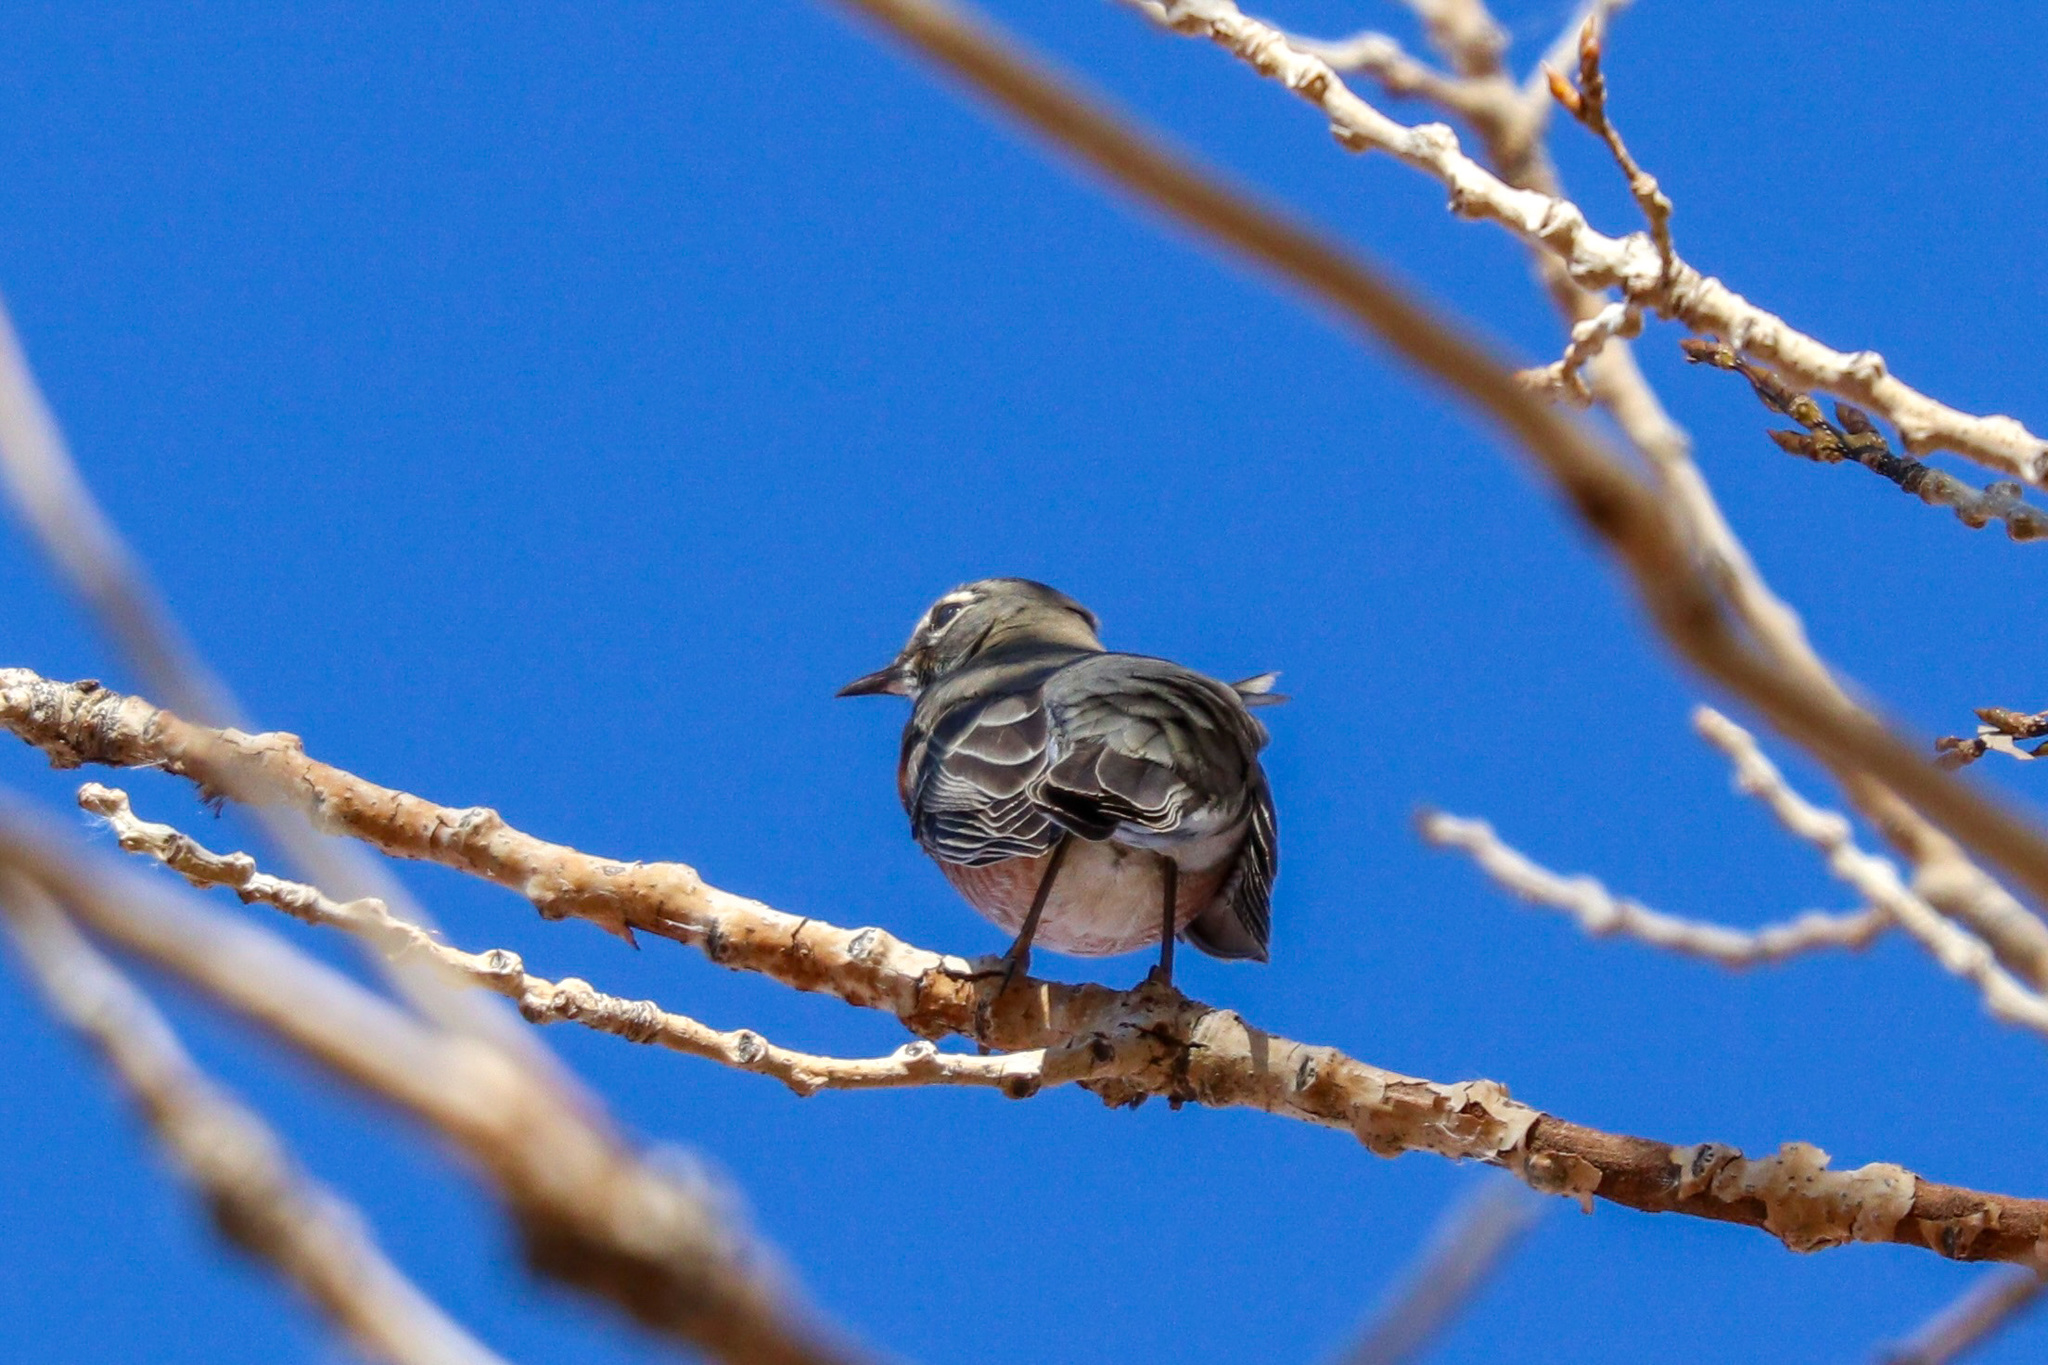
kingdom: Animalia
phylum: Chordata
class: Aves
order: Passeriformes
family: Turdidae
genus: Turdus
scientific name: Turdus migratorius
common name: American robin
